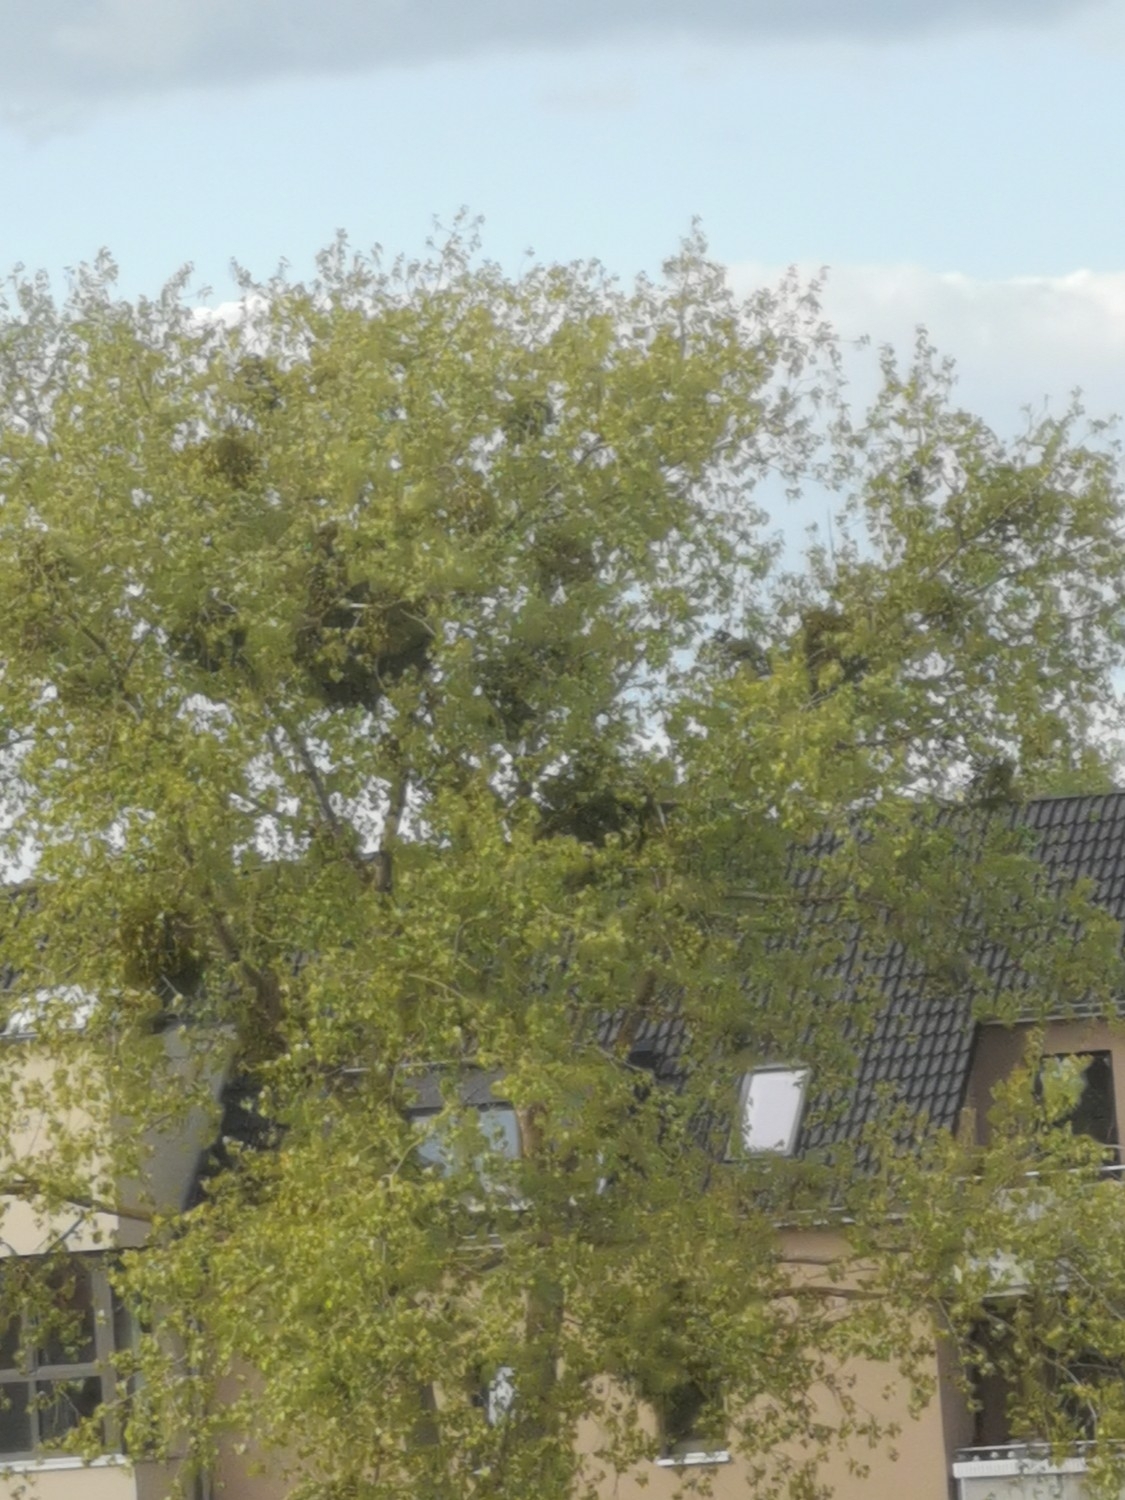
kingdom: Plantae
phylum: Tracheophyta
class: Magnoliopsida
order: Santalales
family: Viscaceae
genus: Viscum
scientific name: Viscum album
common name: Mistletoe
